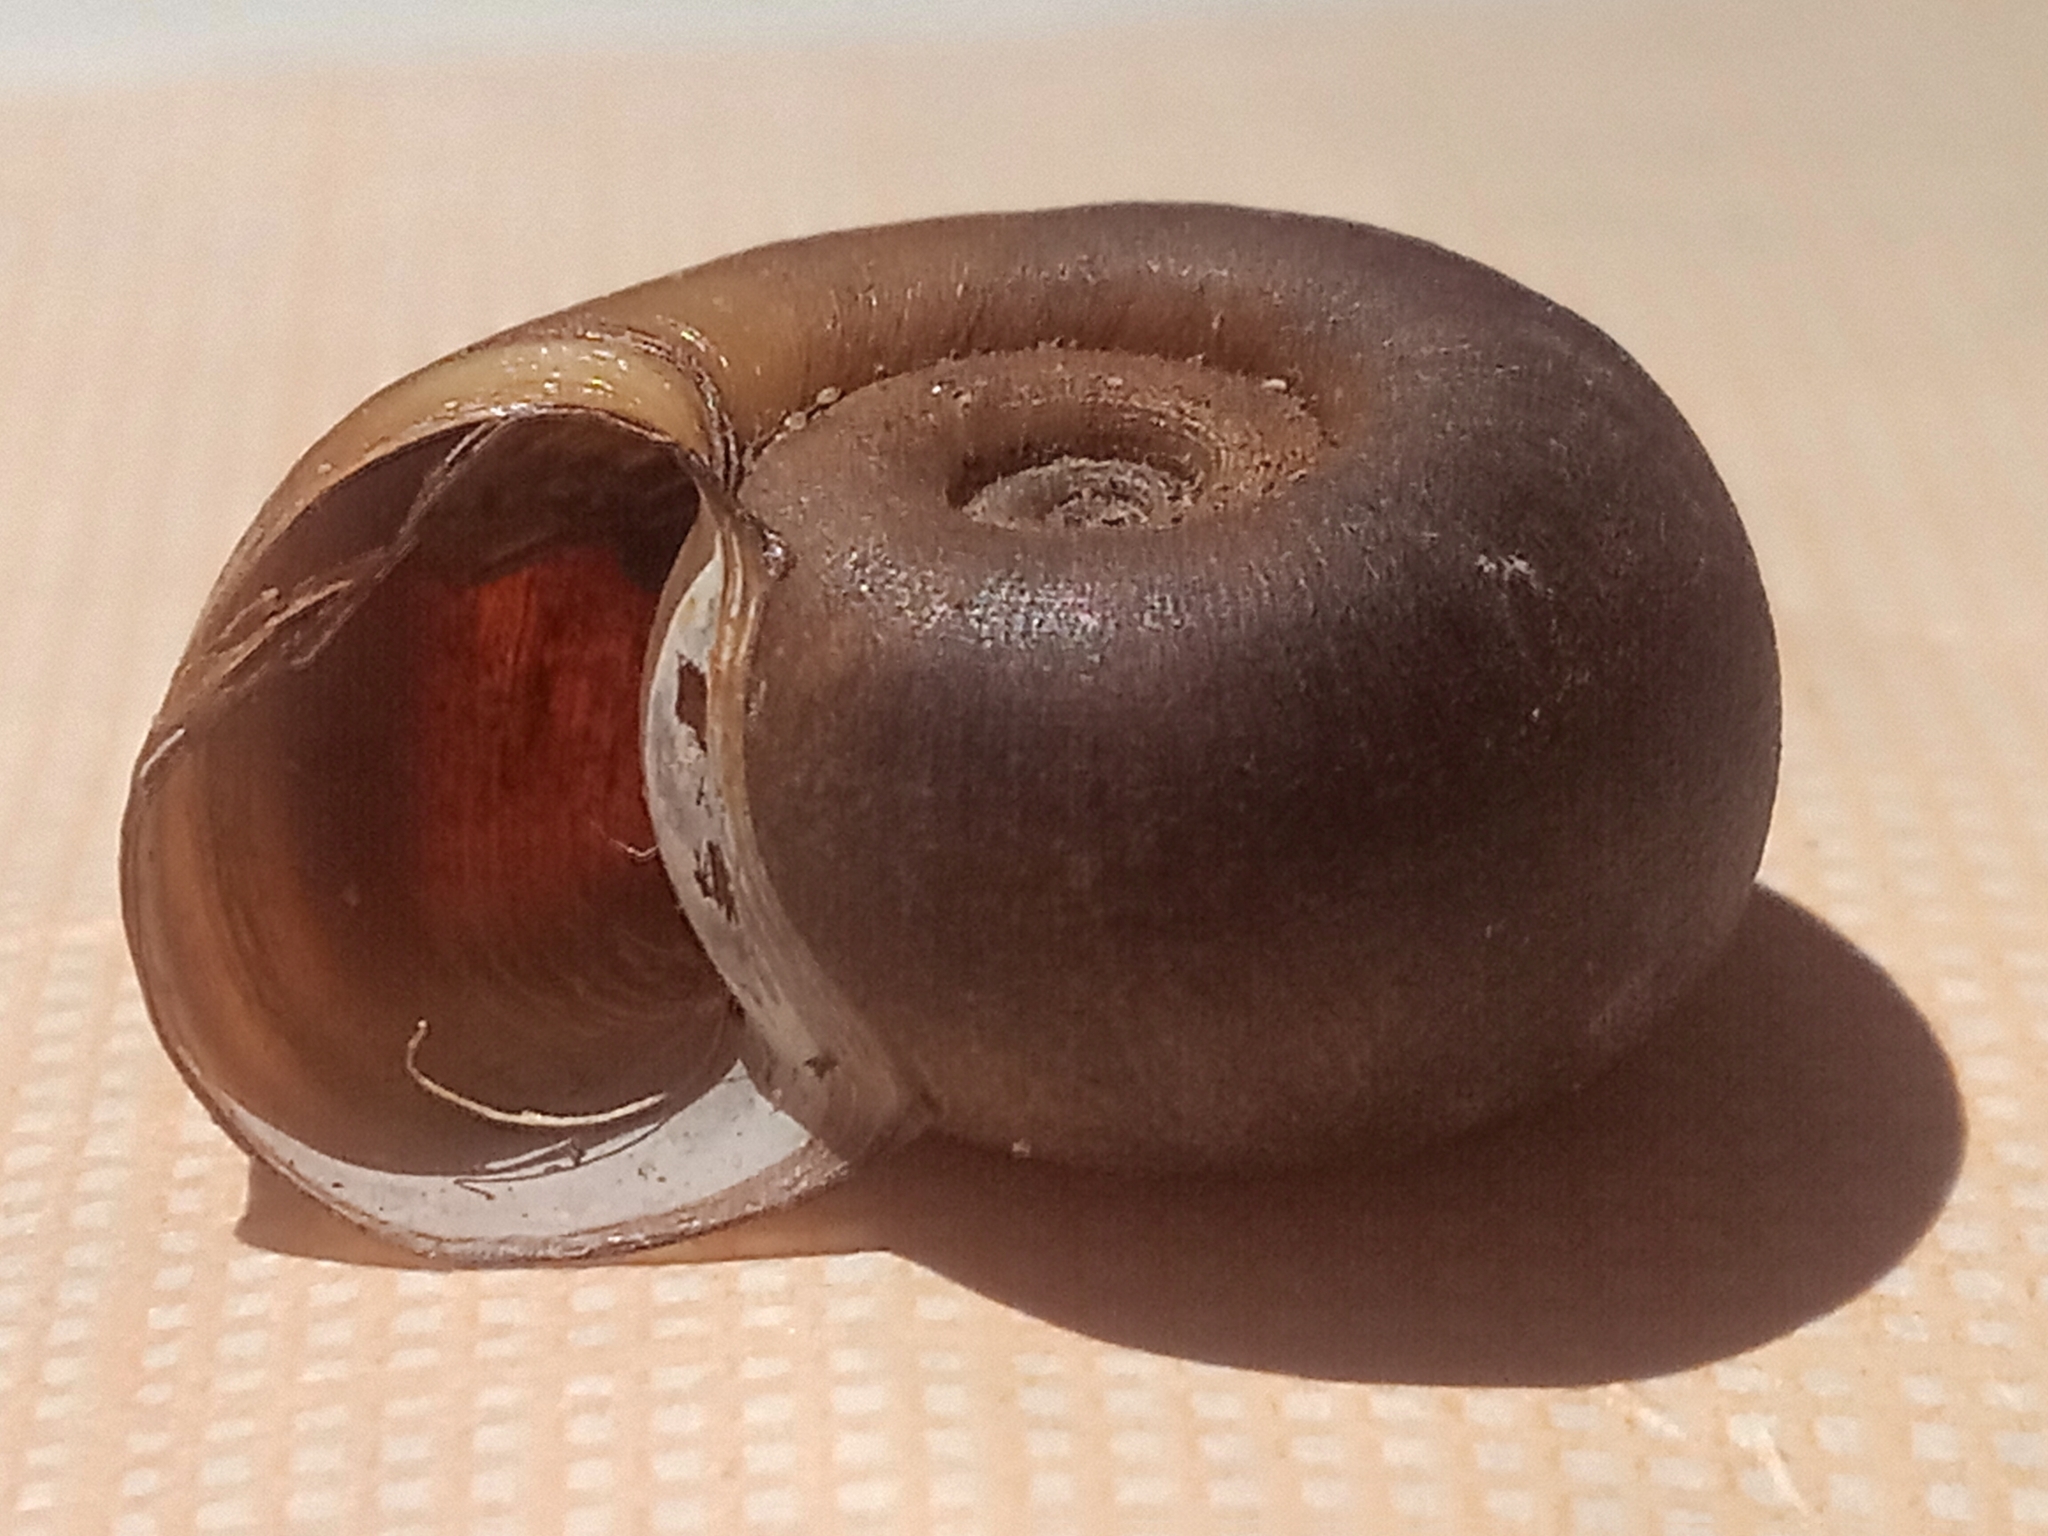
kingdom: Animalia
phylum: Mollusca
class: Gastropoda
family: Planorbidae
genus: Planorbarius
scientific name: Planorbarius corneus
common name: Great ramshorn
